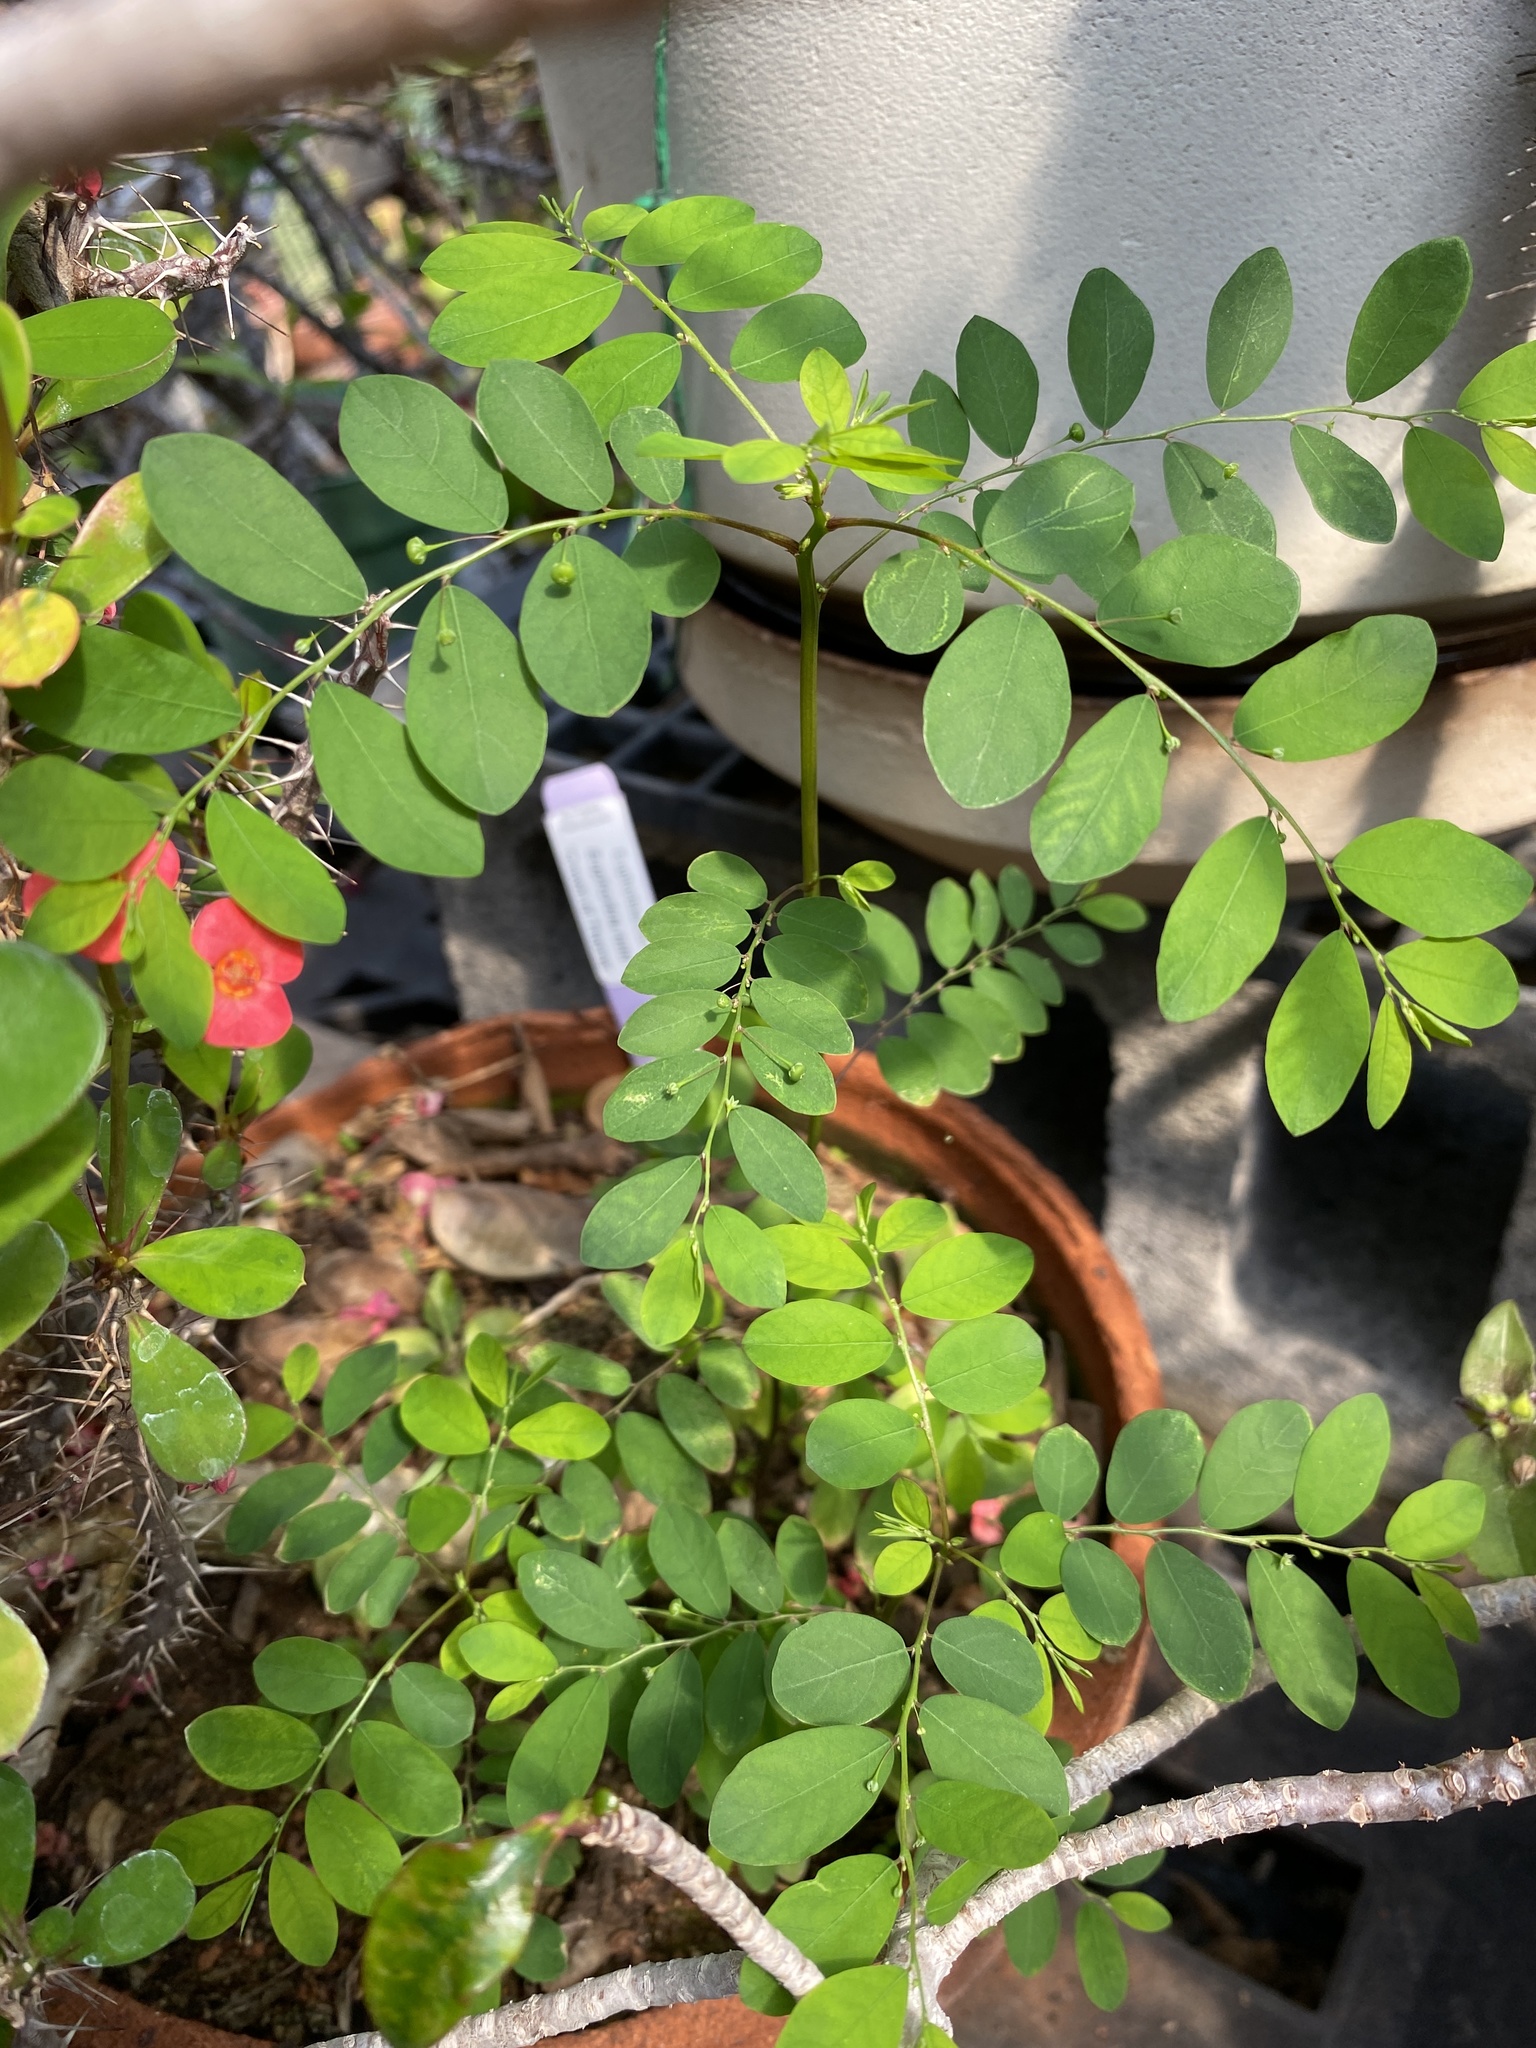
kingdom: Plantae
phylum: Tracheophyta
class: Magnoliopsida
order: Malpighiales
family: Phyllanthaceae
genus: Phyllanthus
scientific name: Phyllanthus tenellus
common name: Mascarene island leaf-flower
